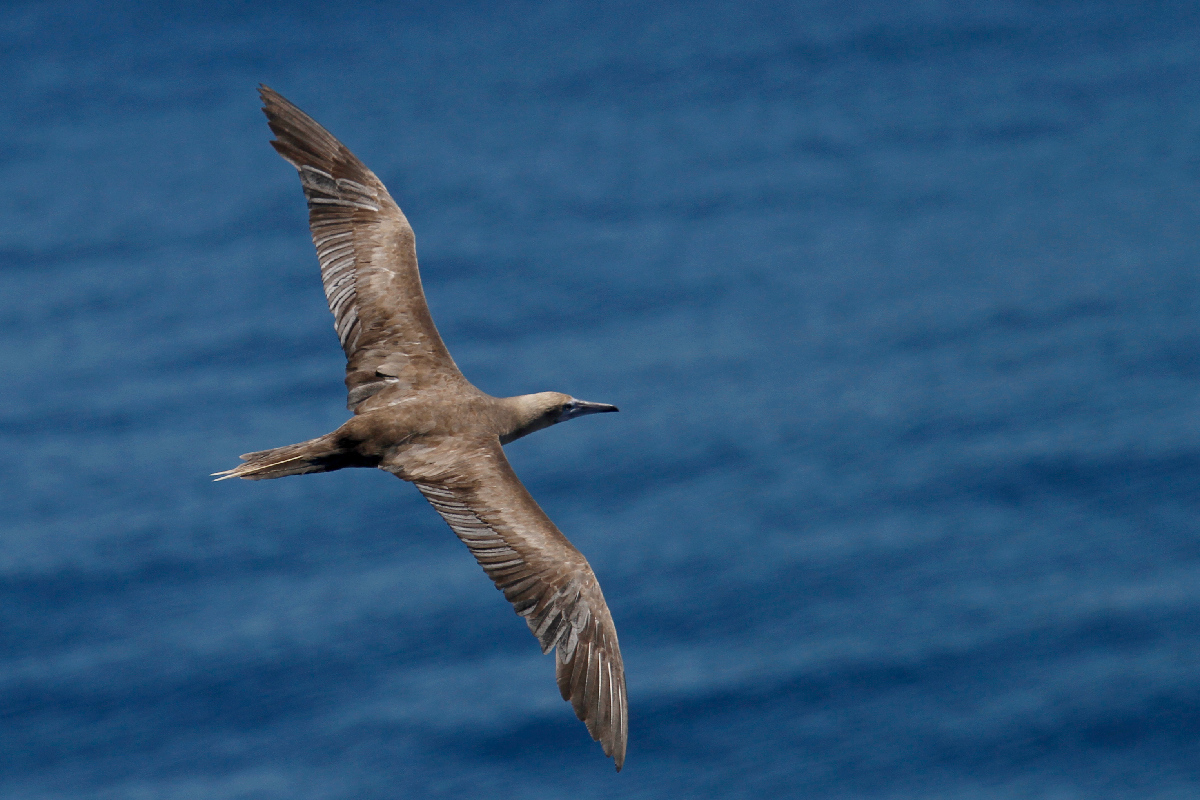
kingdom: Animalia
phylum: Chordata
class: Aves
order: Suliformes
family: Sulidae
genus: Sula
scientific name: Sula sula
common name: Red-footed booby
